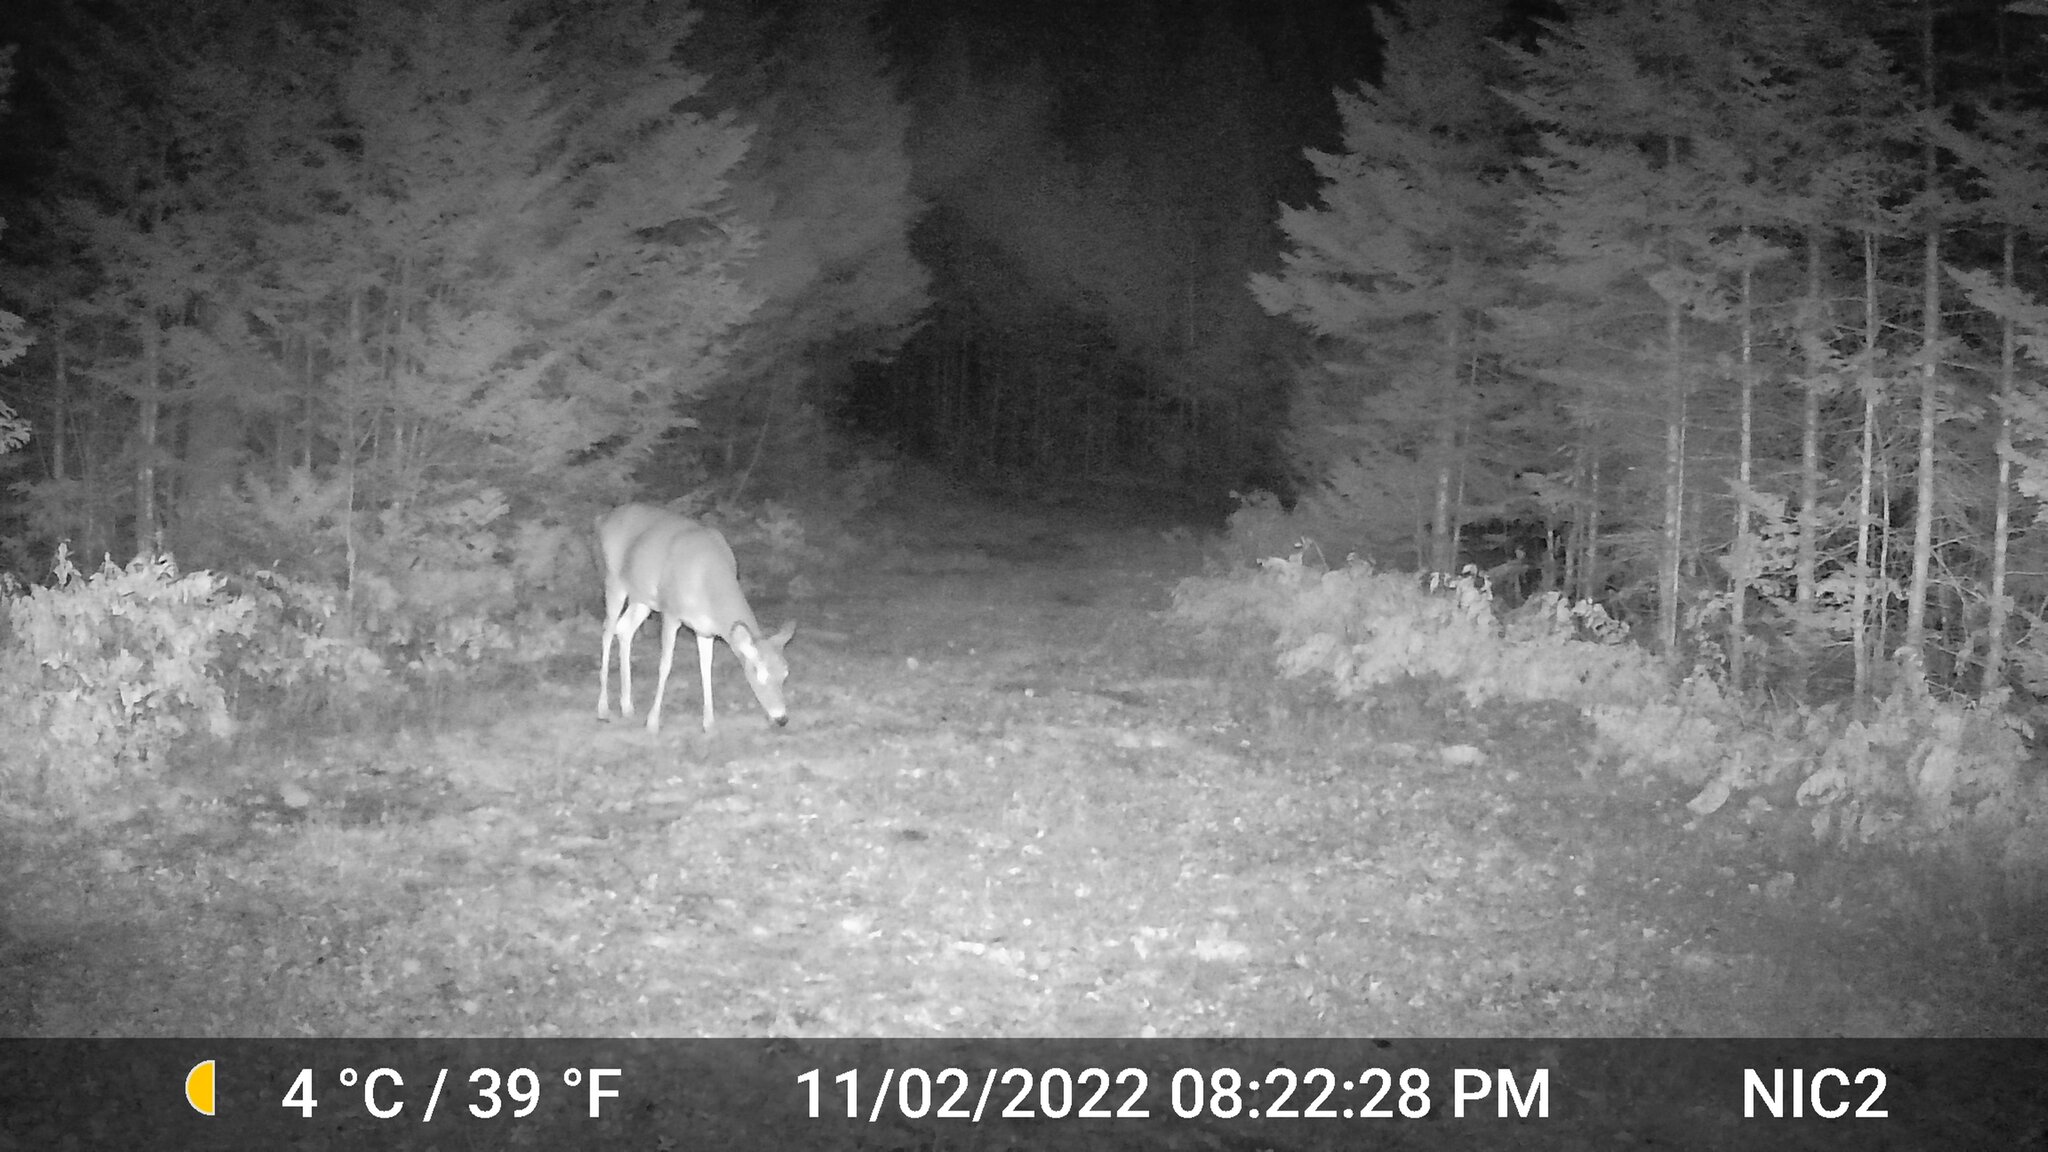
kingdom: Animalia
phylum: Chordata
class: Mammalia
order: Artiodactyla
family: Cervidae
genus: Odocoileus
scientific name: Odocoileus virginianus
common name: White-tailed deer
